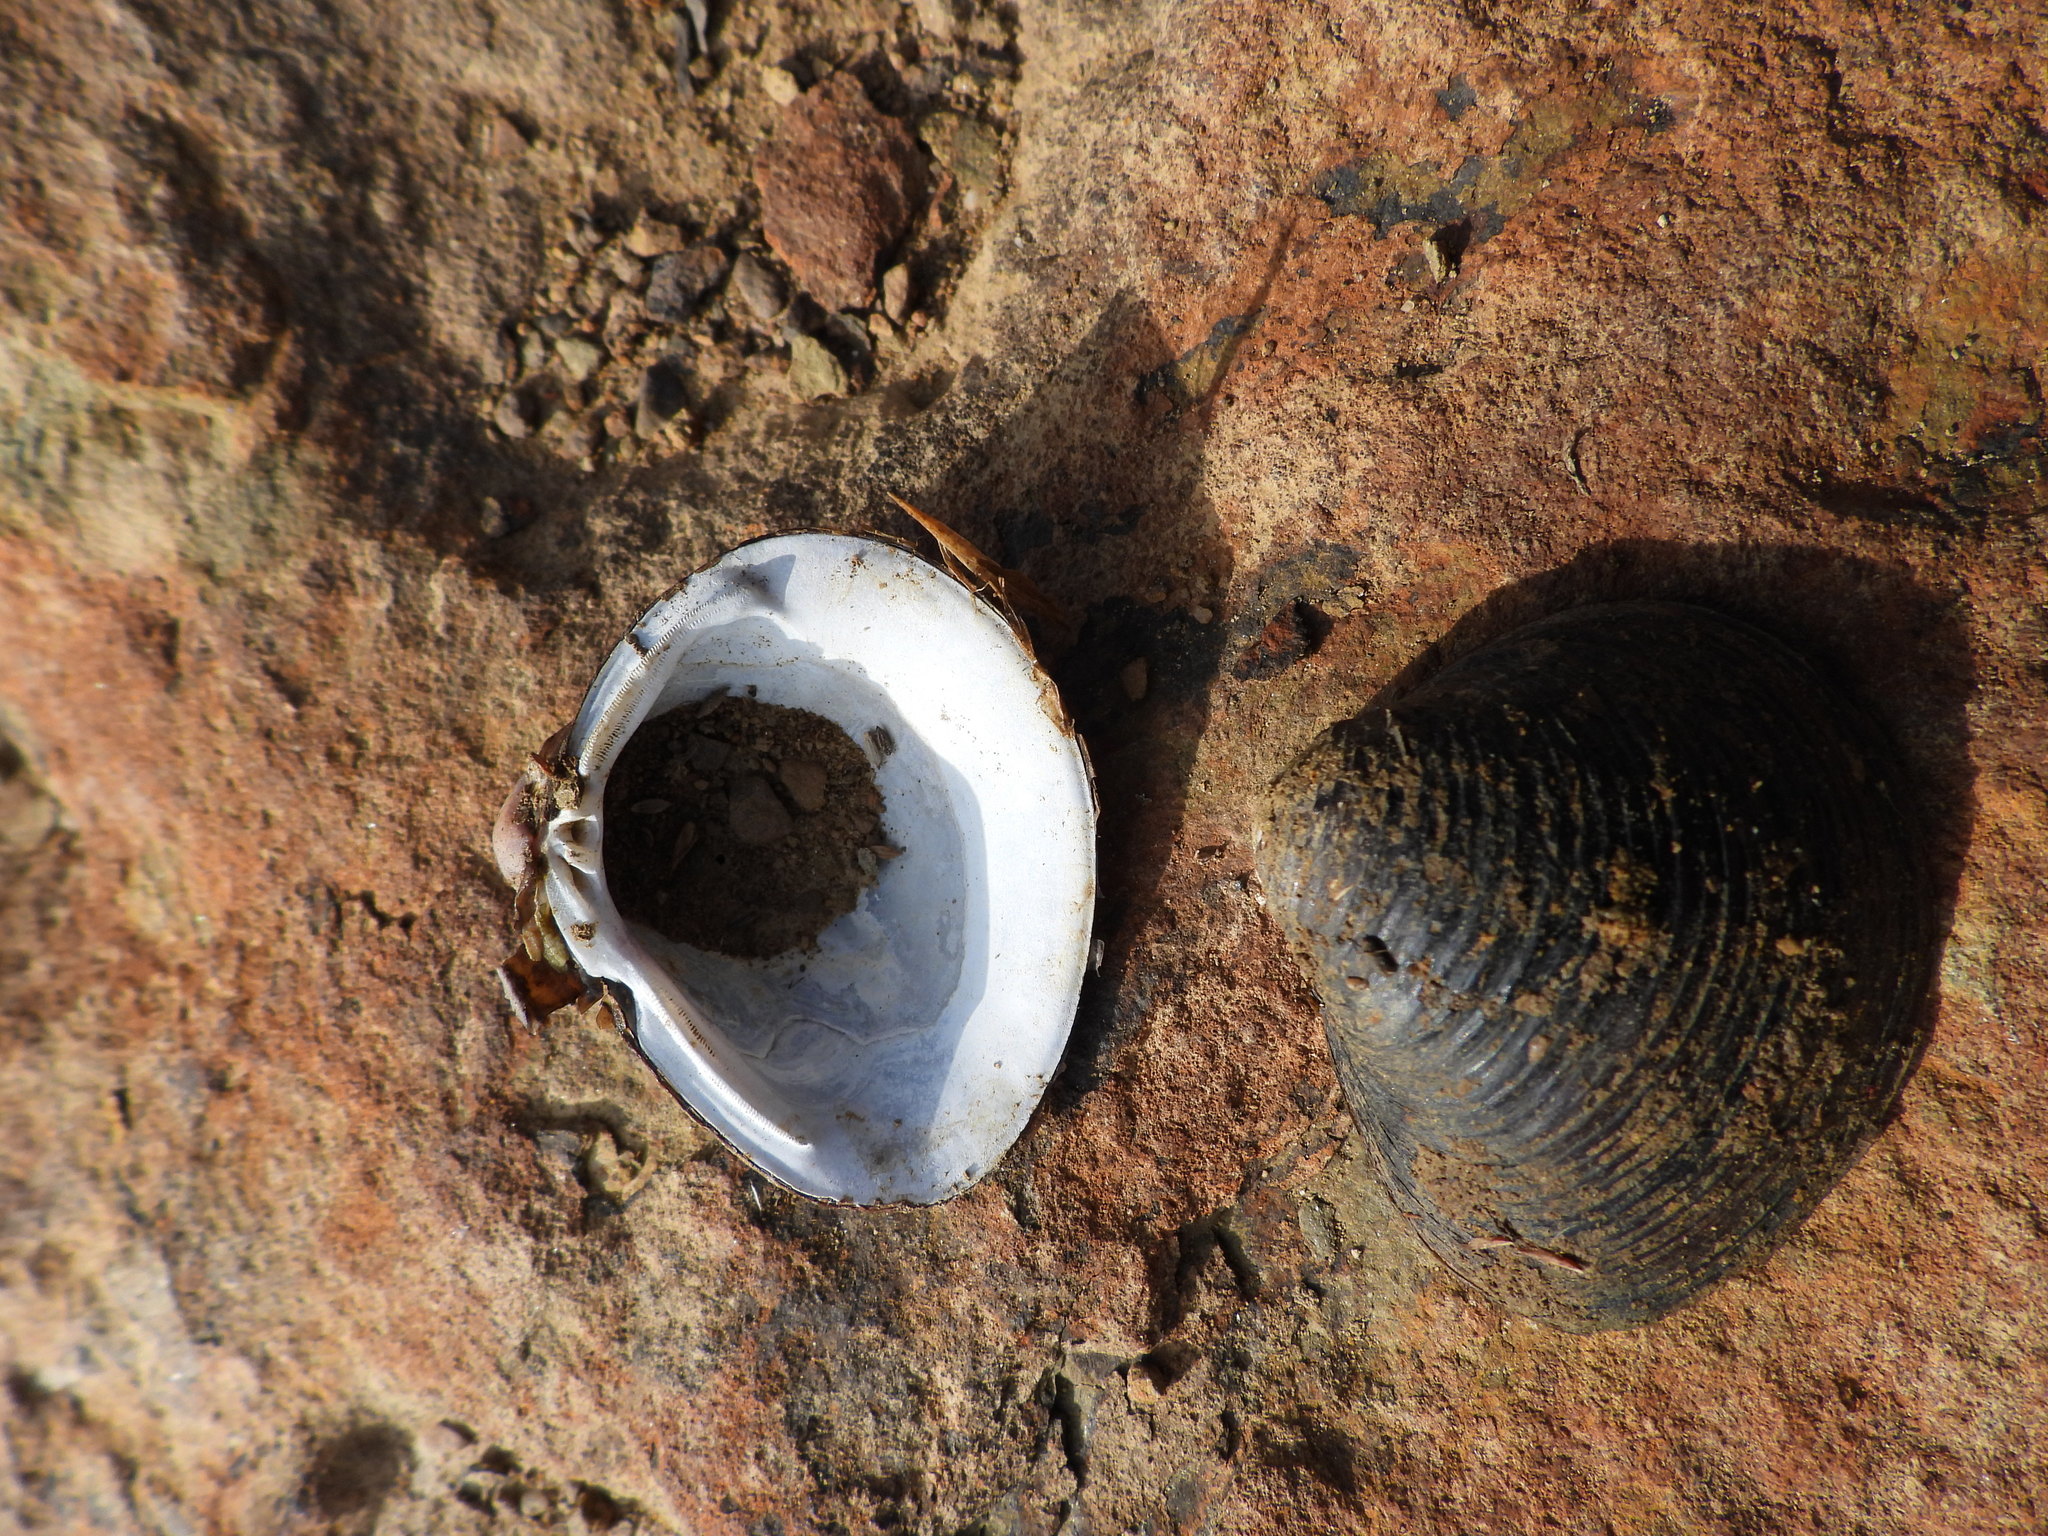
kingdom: Animalia
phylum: Mollusca
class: Bivalvia
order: Venerida
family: Cyrenidae
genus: Corbicula
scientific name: Corbicula fluminea
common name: Asian clam
